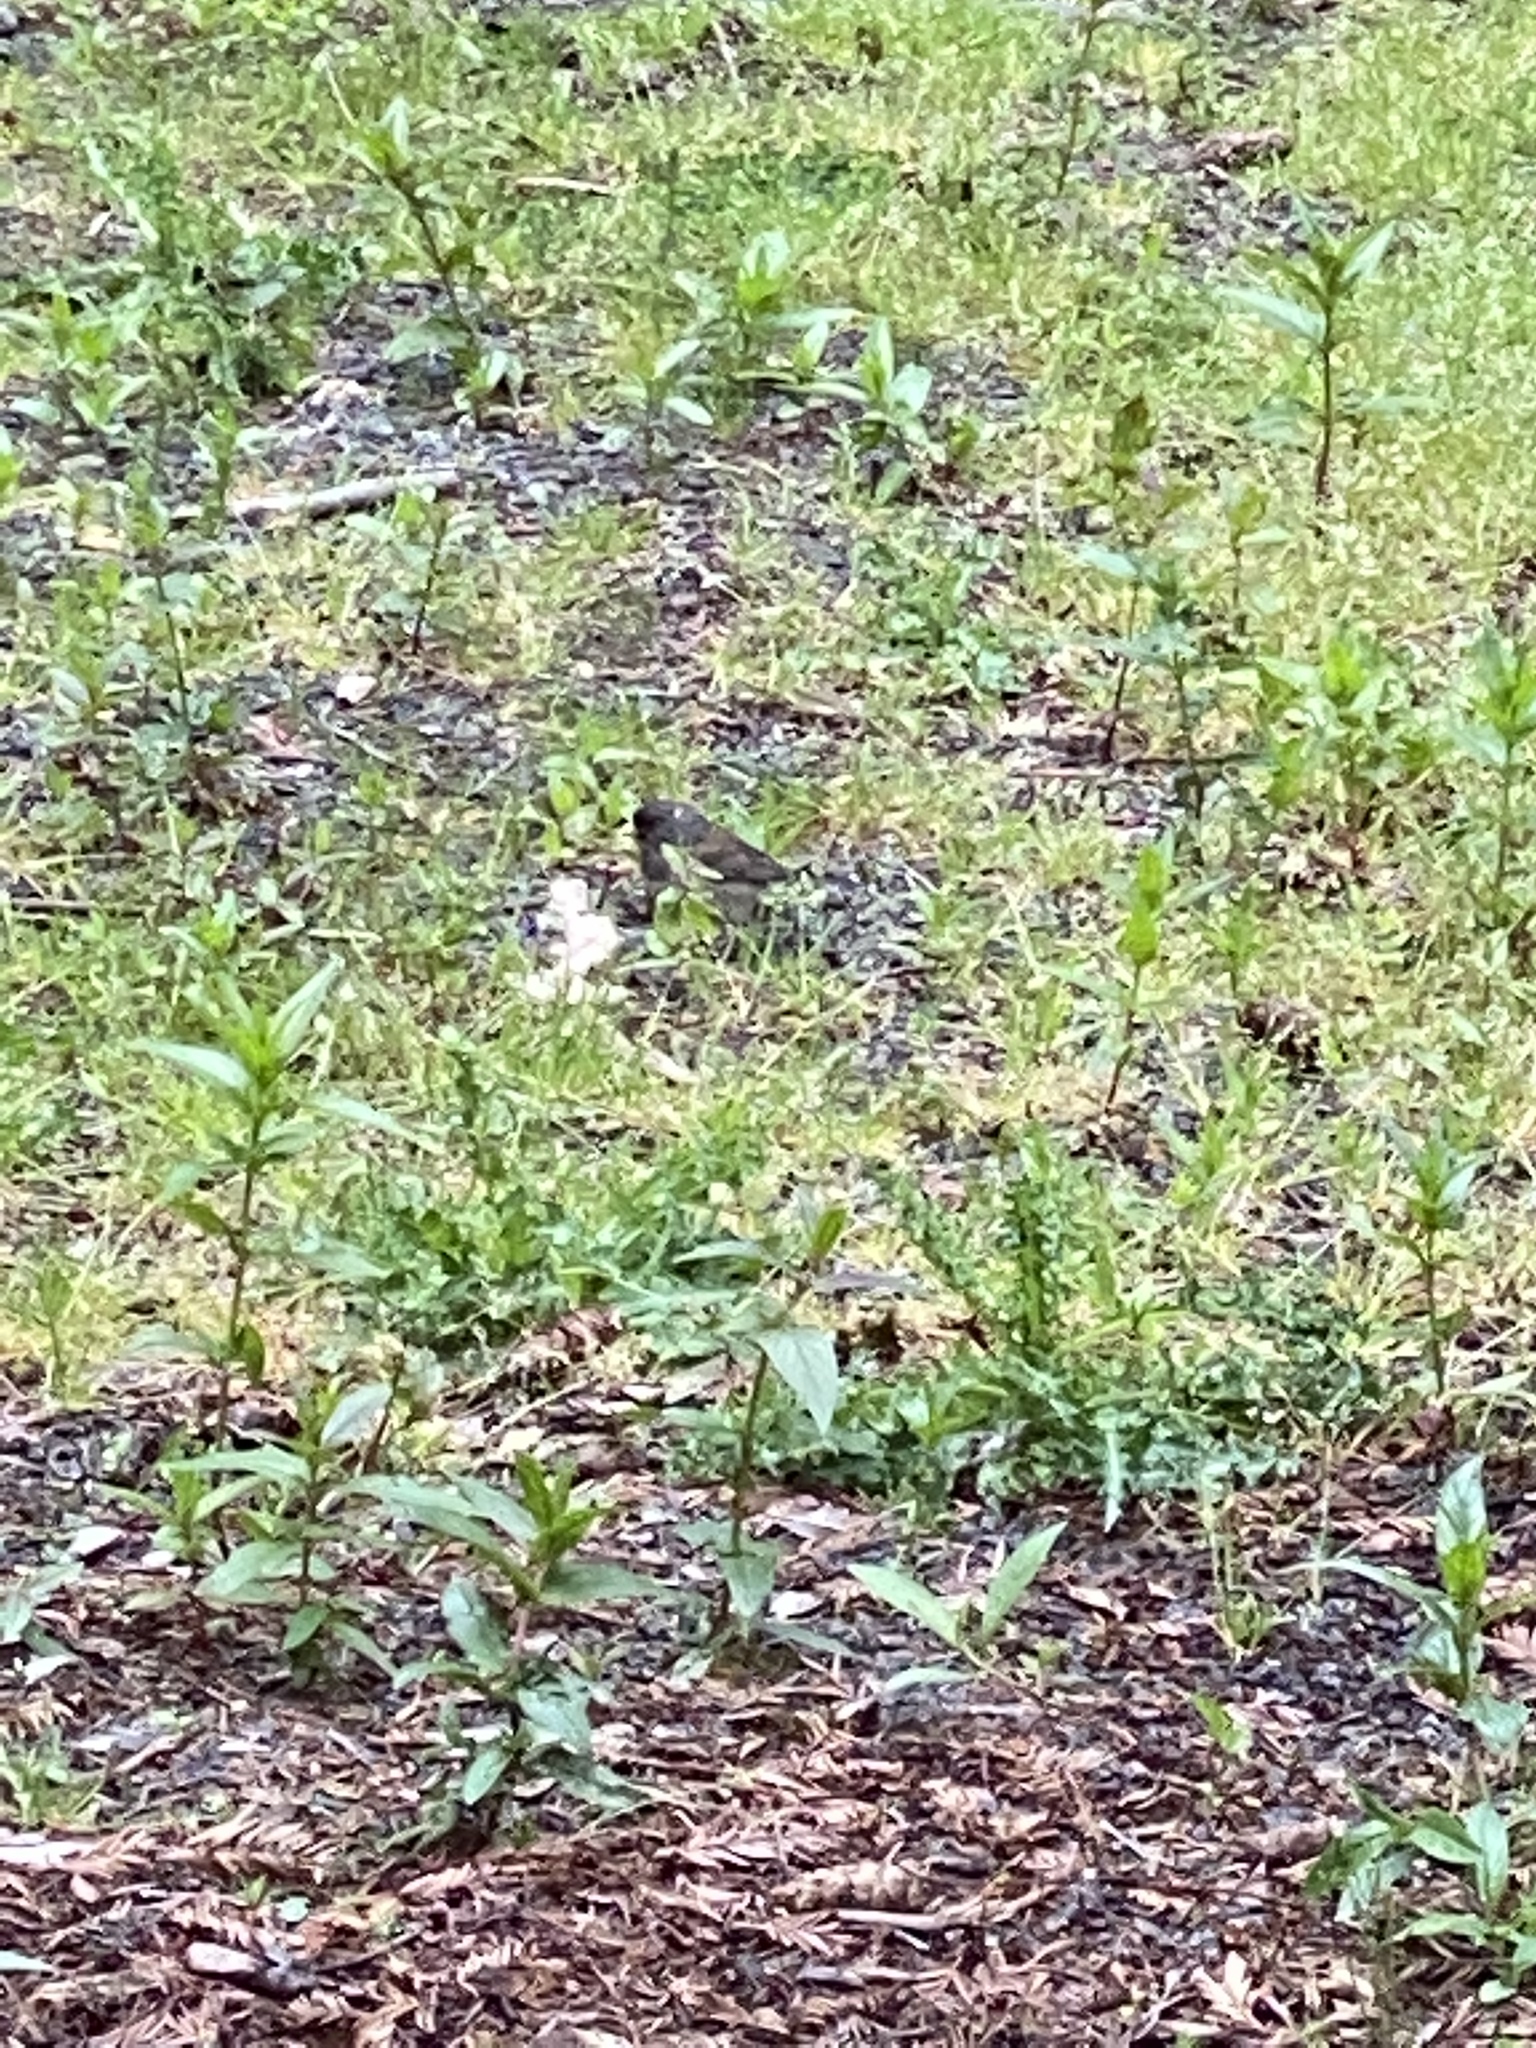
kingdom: Animalia
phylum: Chordata
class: Aves
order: Passeriformes
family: Passerellidae
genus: Junco
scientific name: Junco hyemalis
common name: Dark-eyed junco
